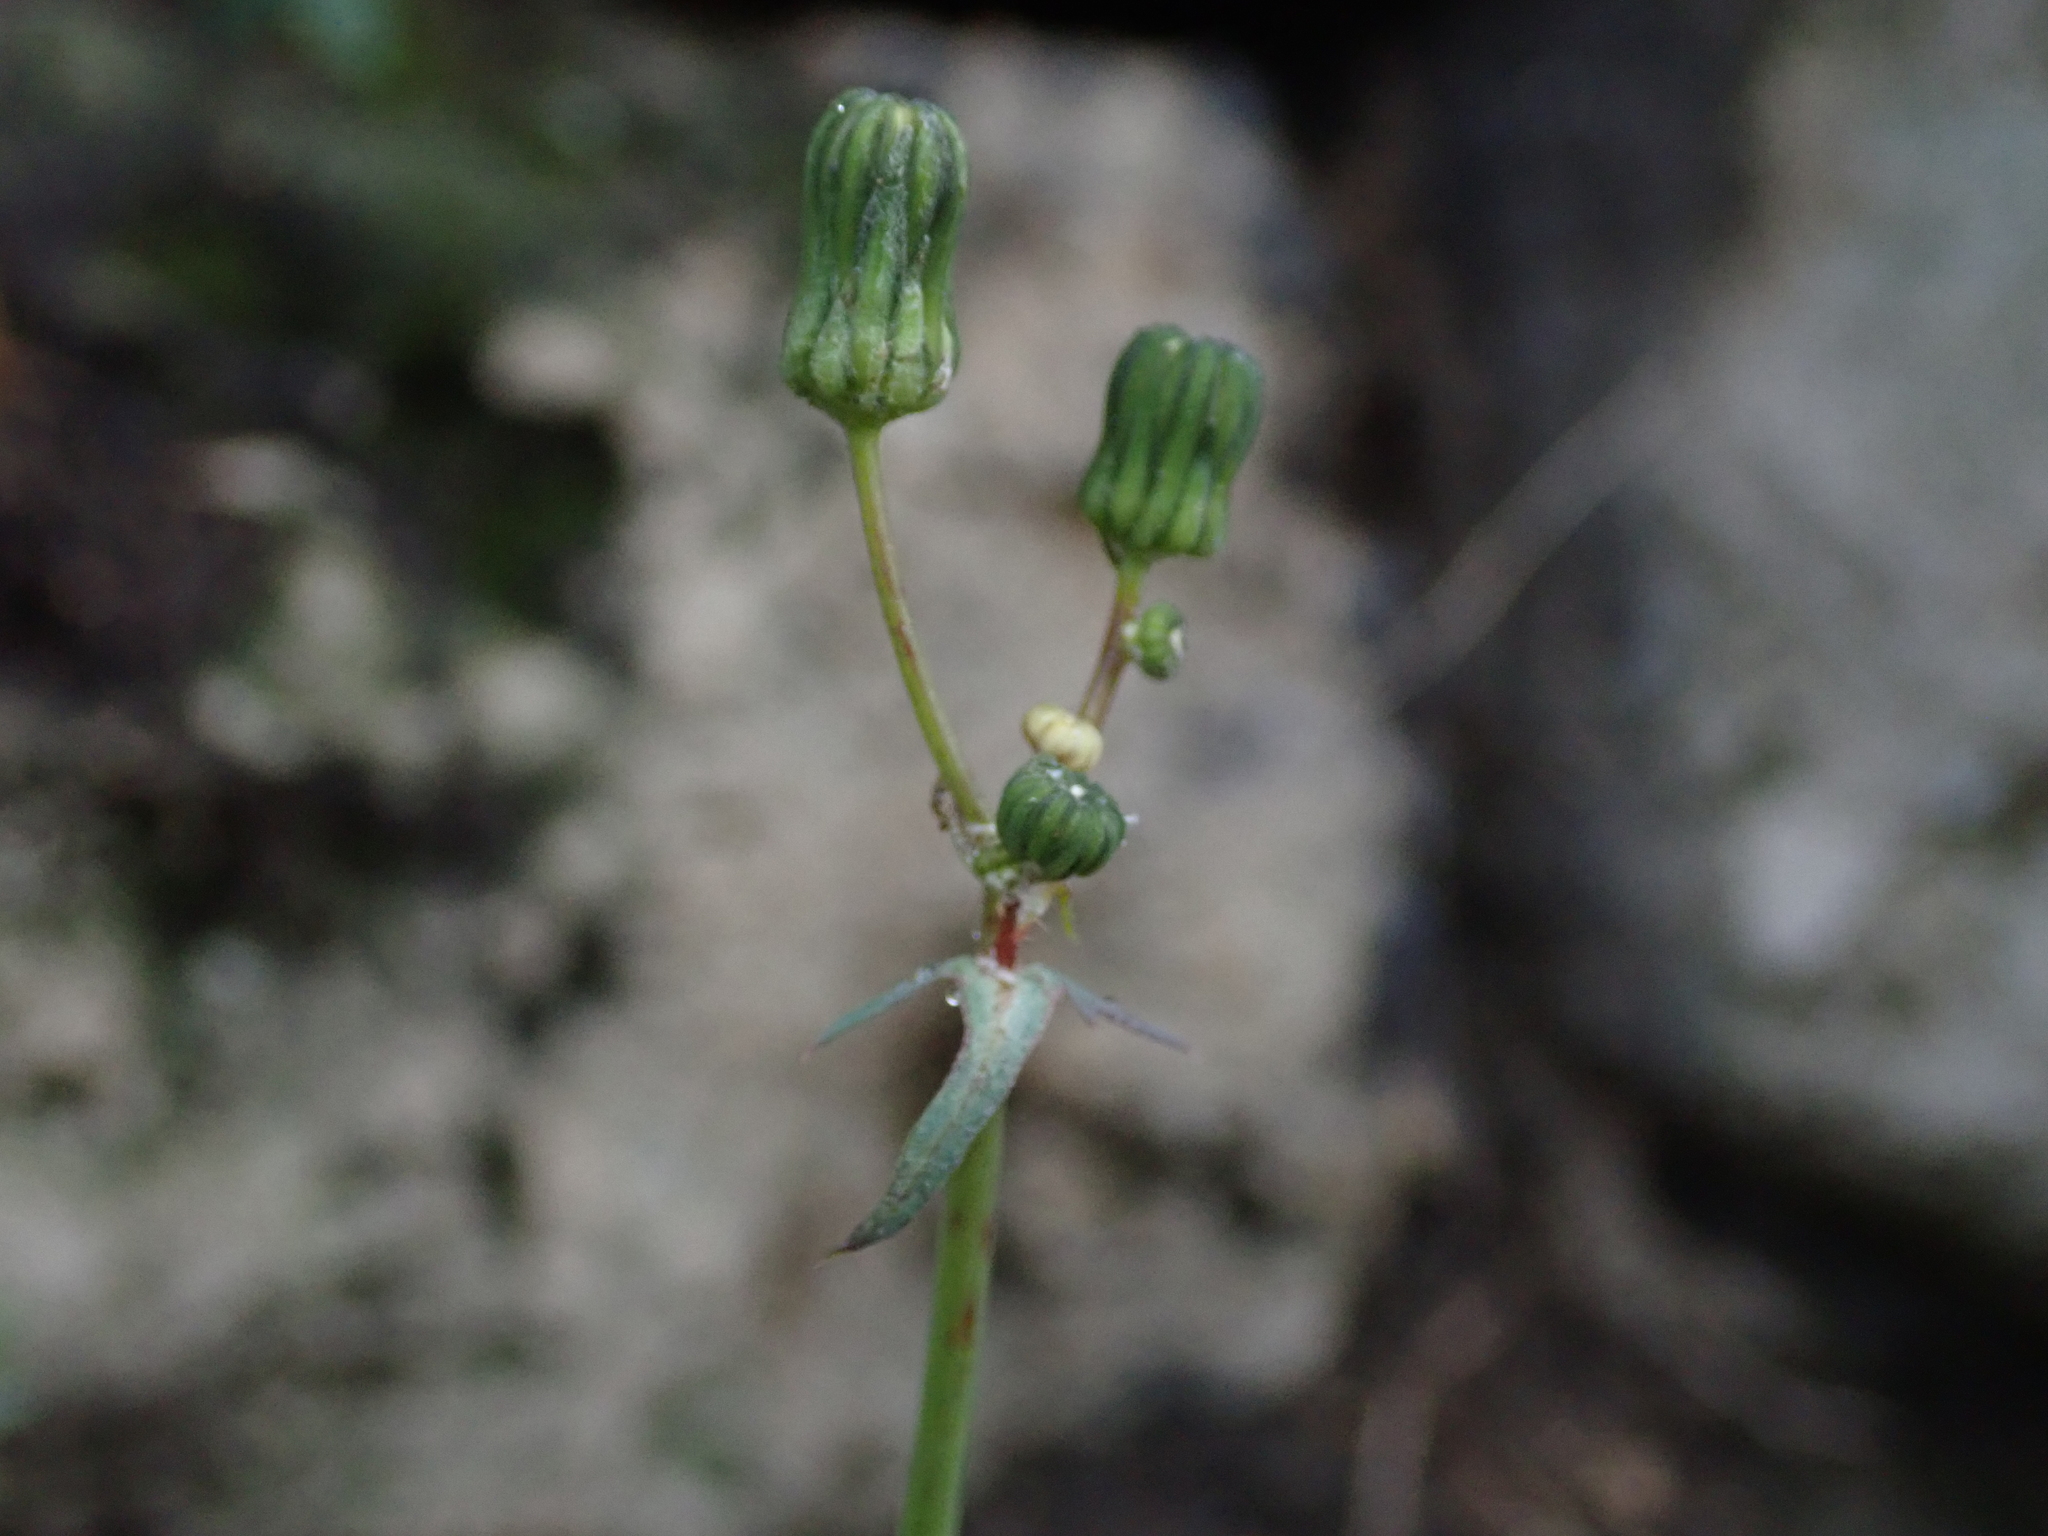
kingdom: Plantae
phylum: Tracheophyta
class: Magnoliopsida
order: Asterales
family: Asteraceae
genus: Sonchus
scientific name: Sonchus oleraceus
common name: Common sowthistle
